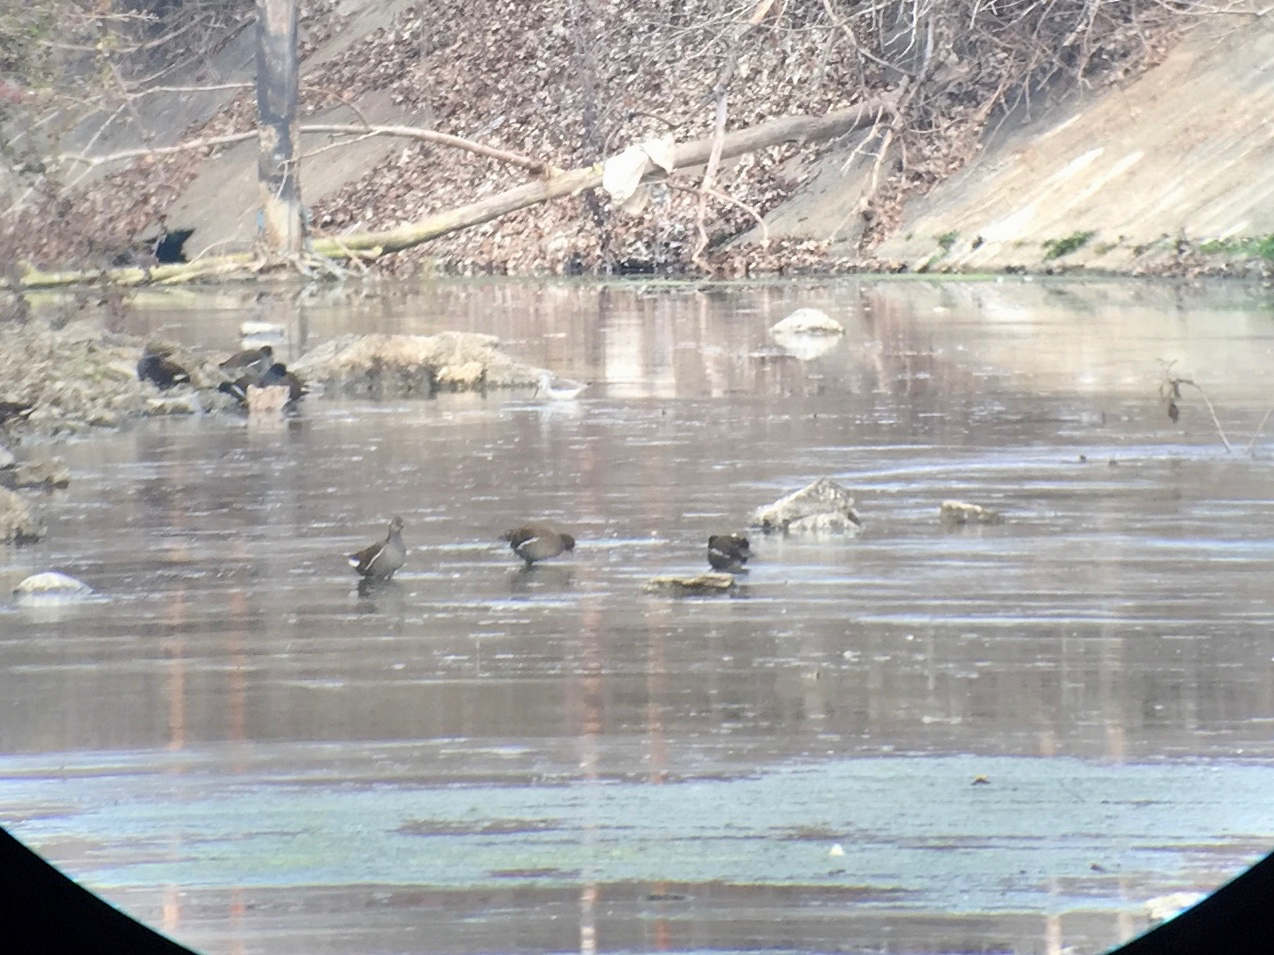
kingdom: Animalia
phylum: Chordata
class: Aves
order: Gruiformes
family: Rallidae
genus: Gallinula
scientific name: Gallinula chloropus
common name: Common moorhen
